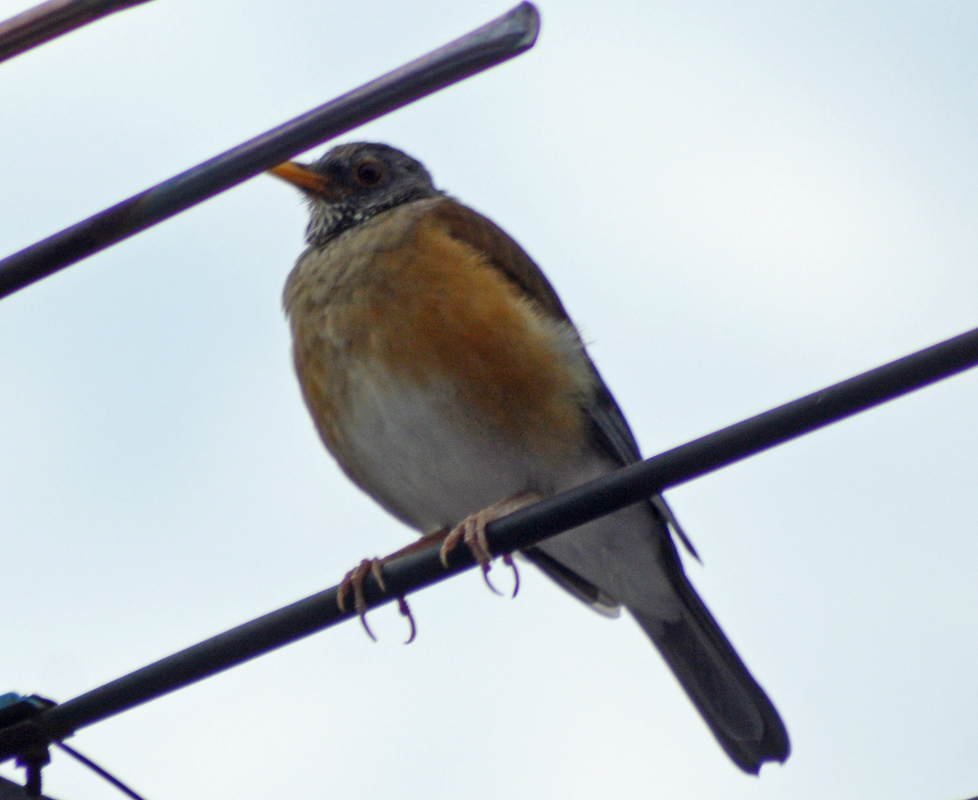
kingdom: Animalia
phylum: Chordata
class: Aves
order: Passeriformes
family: Turdidae
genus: Turdus
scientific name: Turdus rufopalliatus
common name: Rufous-backed robin
